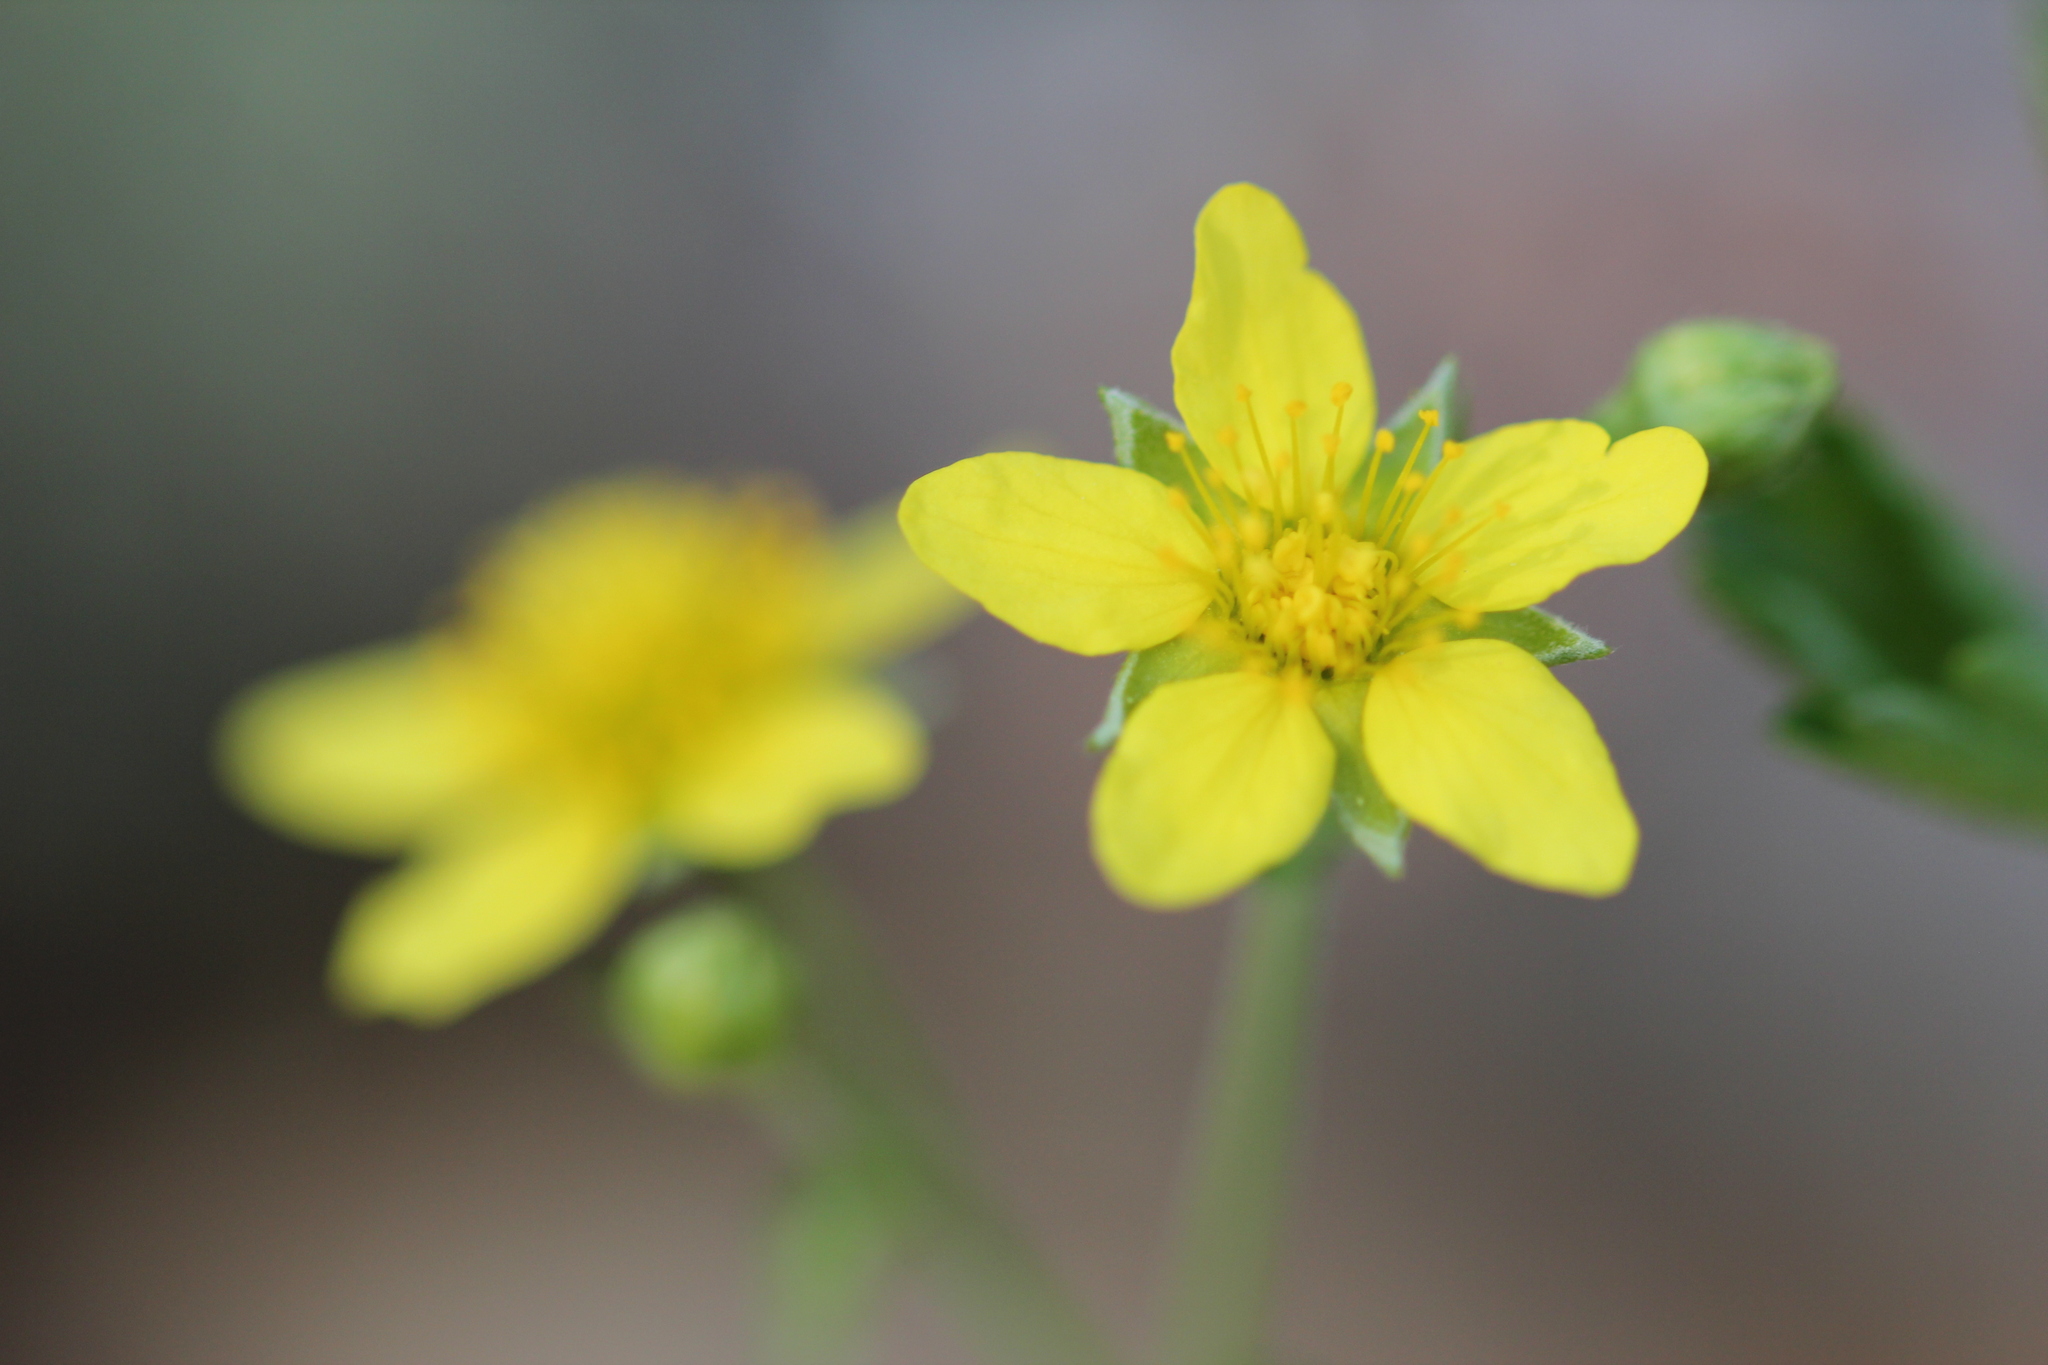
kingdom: Plantae
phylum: Tracheophyta
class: Magnoliopsida
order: Rosales
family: Rosaceae
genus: Geum
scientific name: Geum fragarioides
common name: Appalachian barren strawberry
